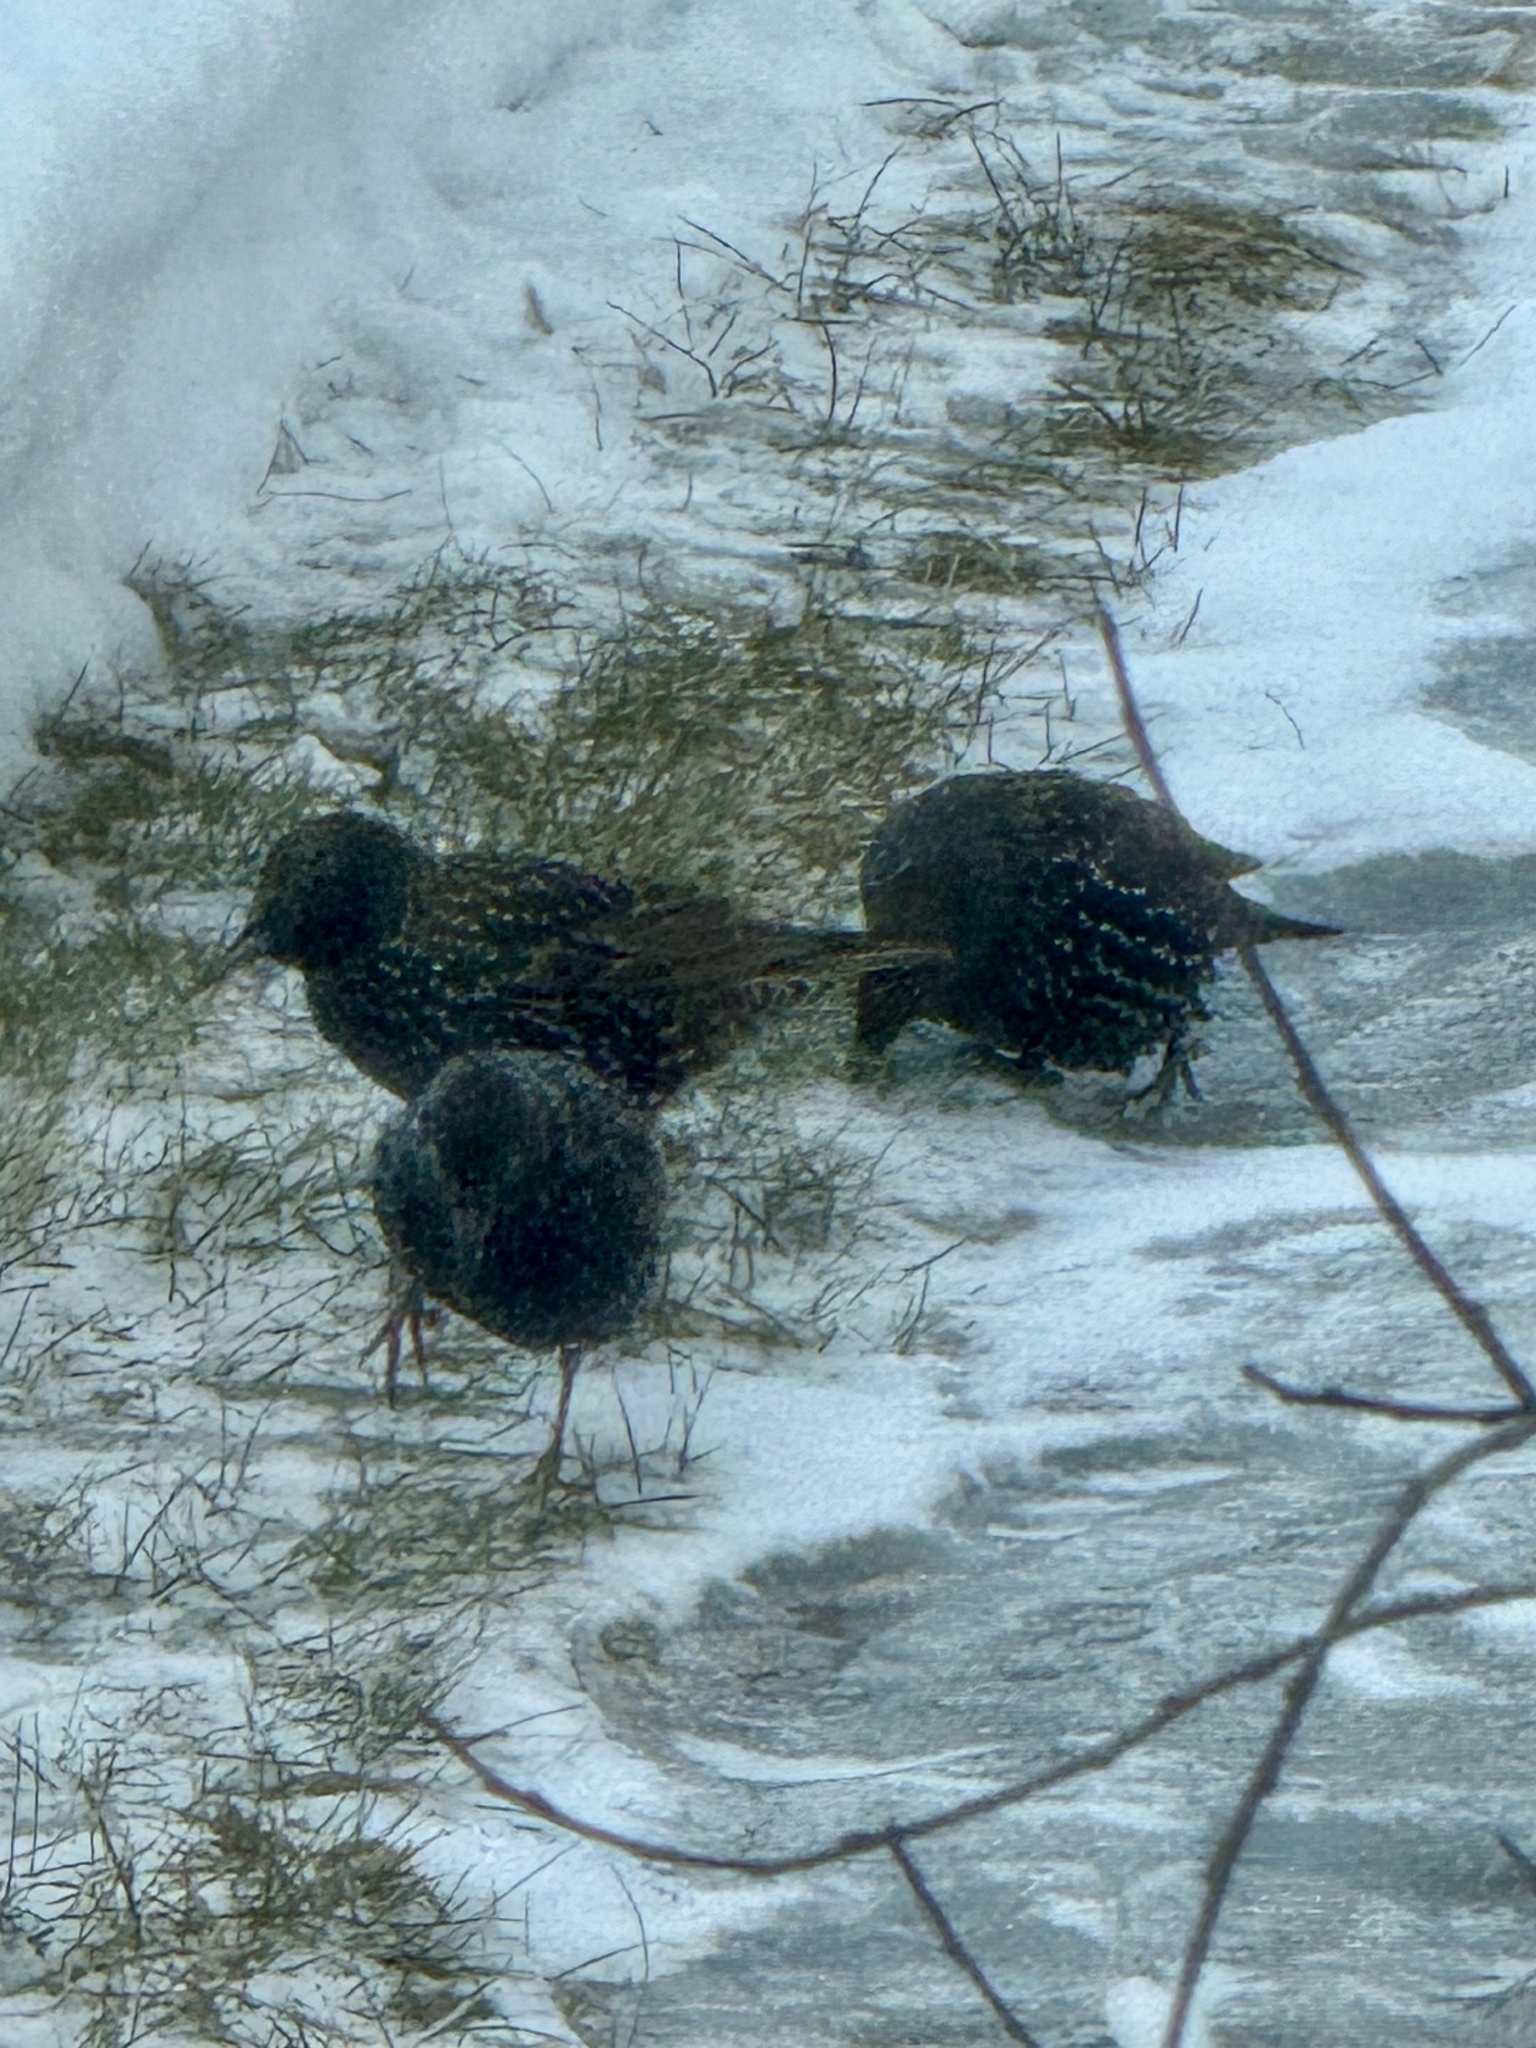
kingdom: Animalia
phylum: Chordata
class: Aves
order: Passeriformes
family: Sturnidae
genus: Sturnus
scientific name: Sturnus vulgaris
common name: Common starling
